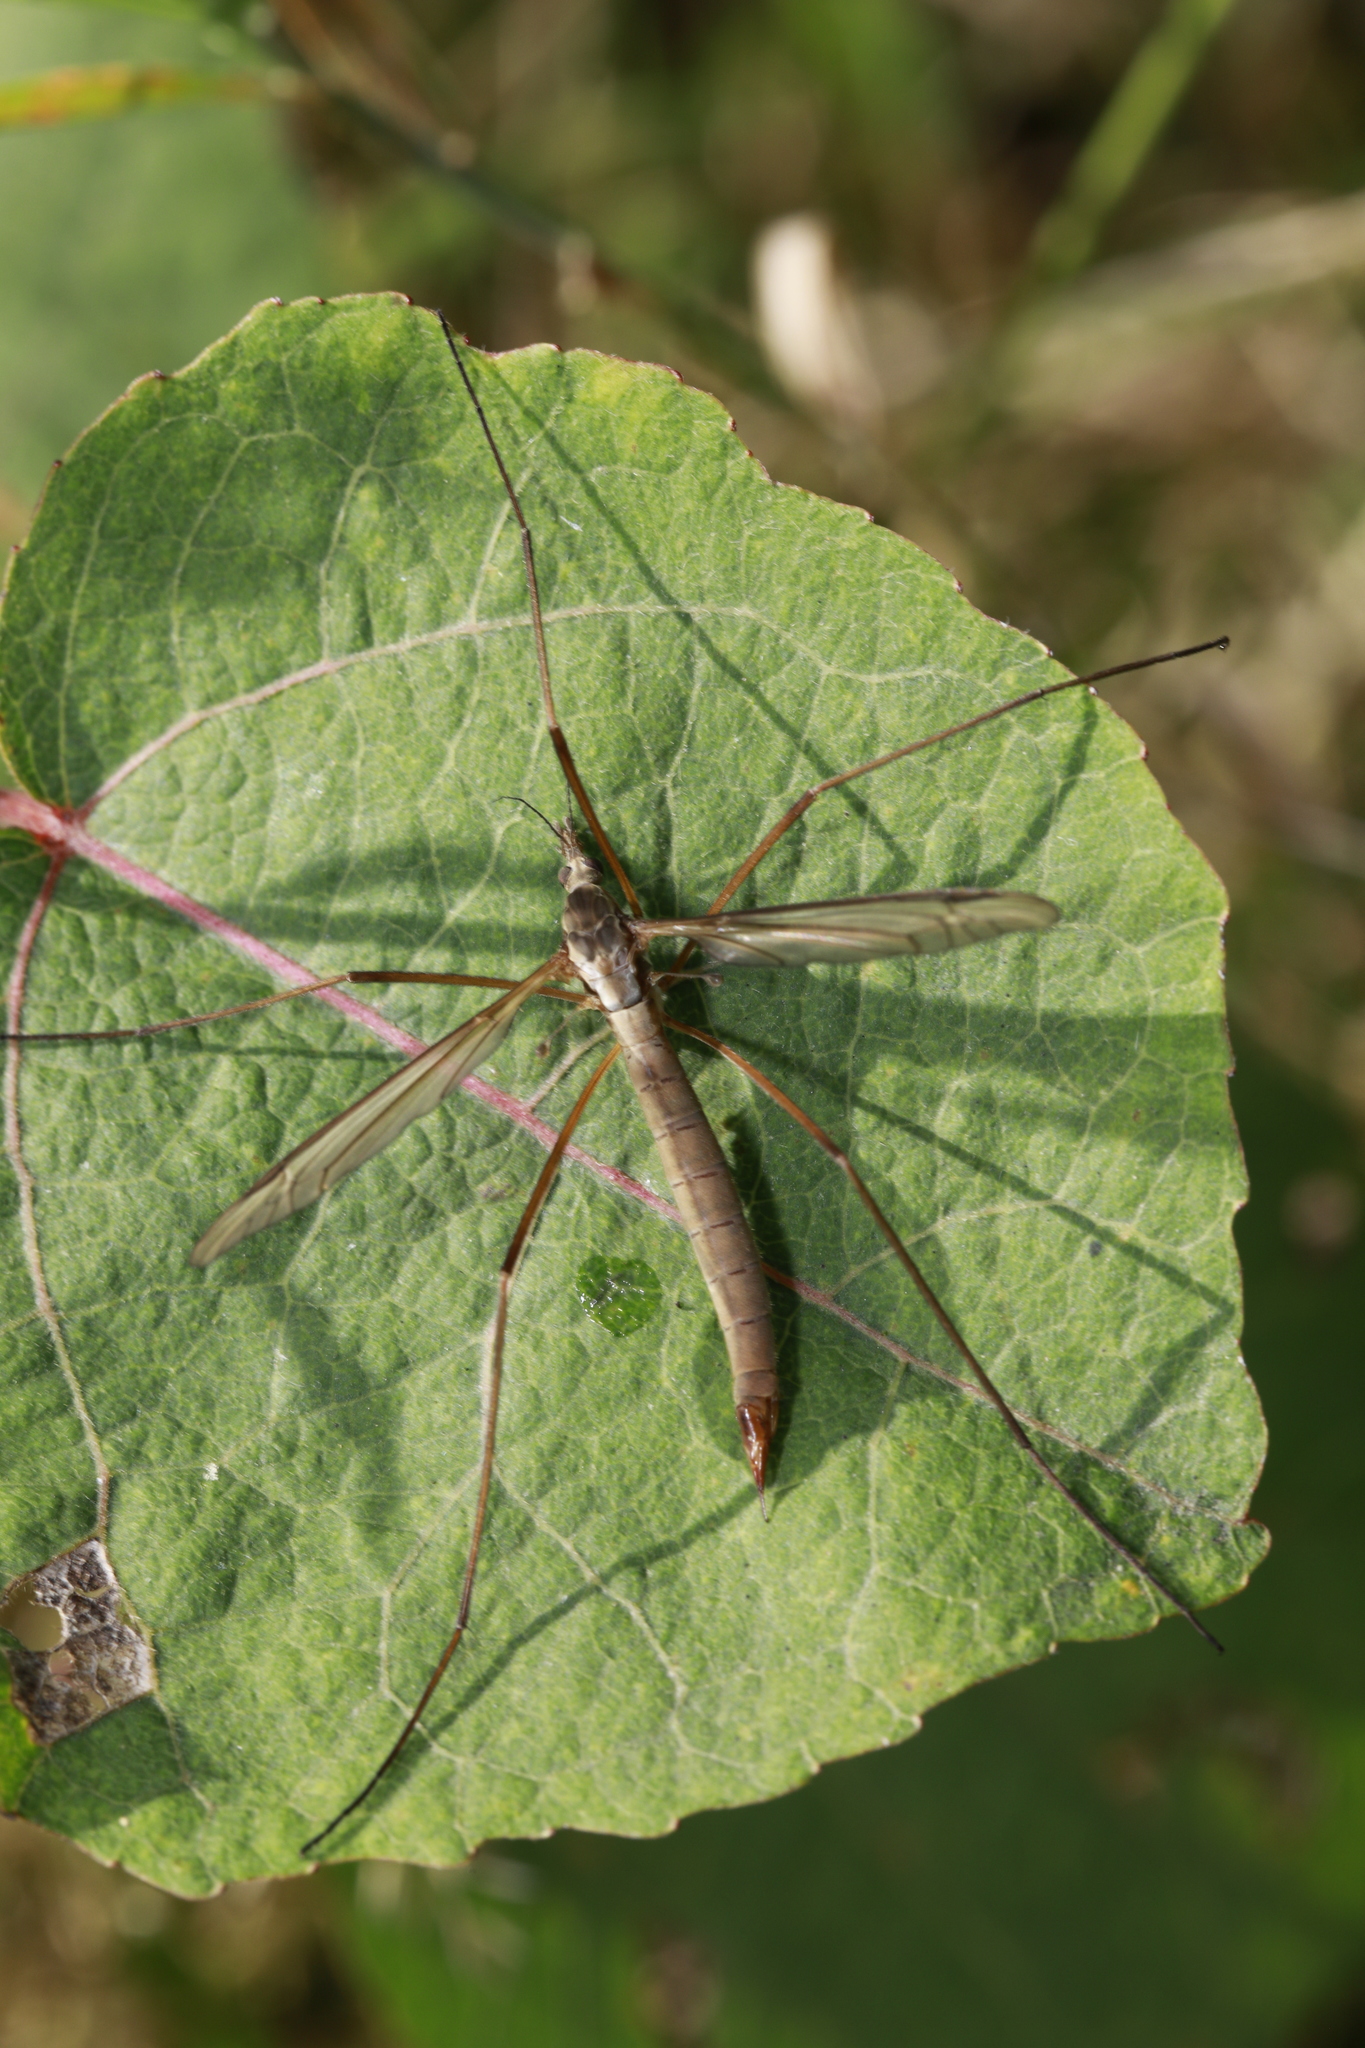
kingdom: Animalia
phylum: Arthropoda
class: Insecta
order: Diptera
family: Tipulidae
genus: Tipula
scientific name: Tipula paludosa
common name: European cranefly
